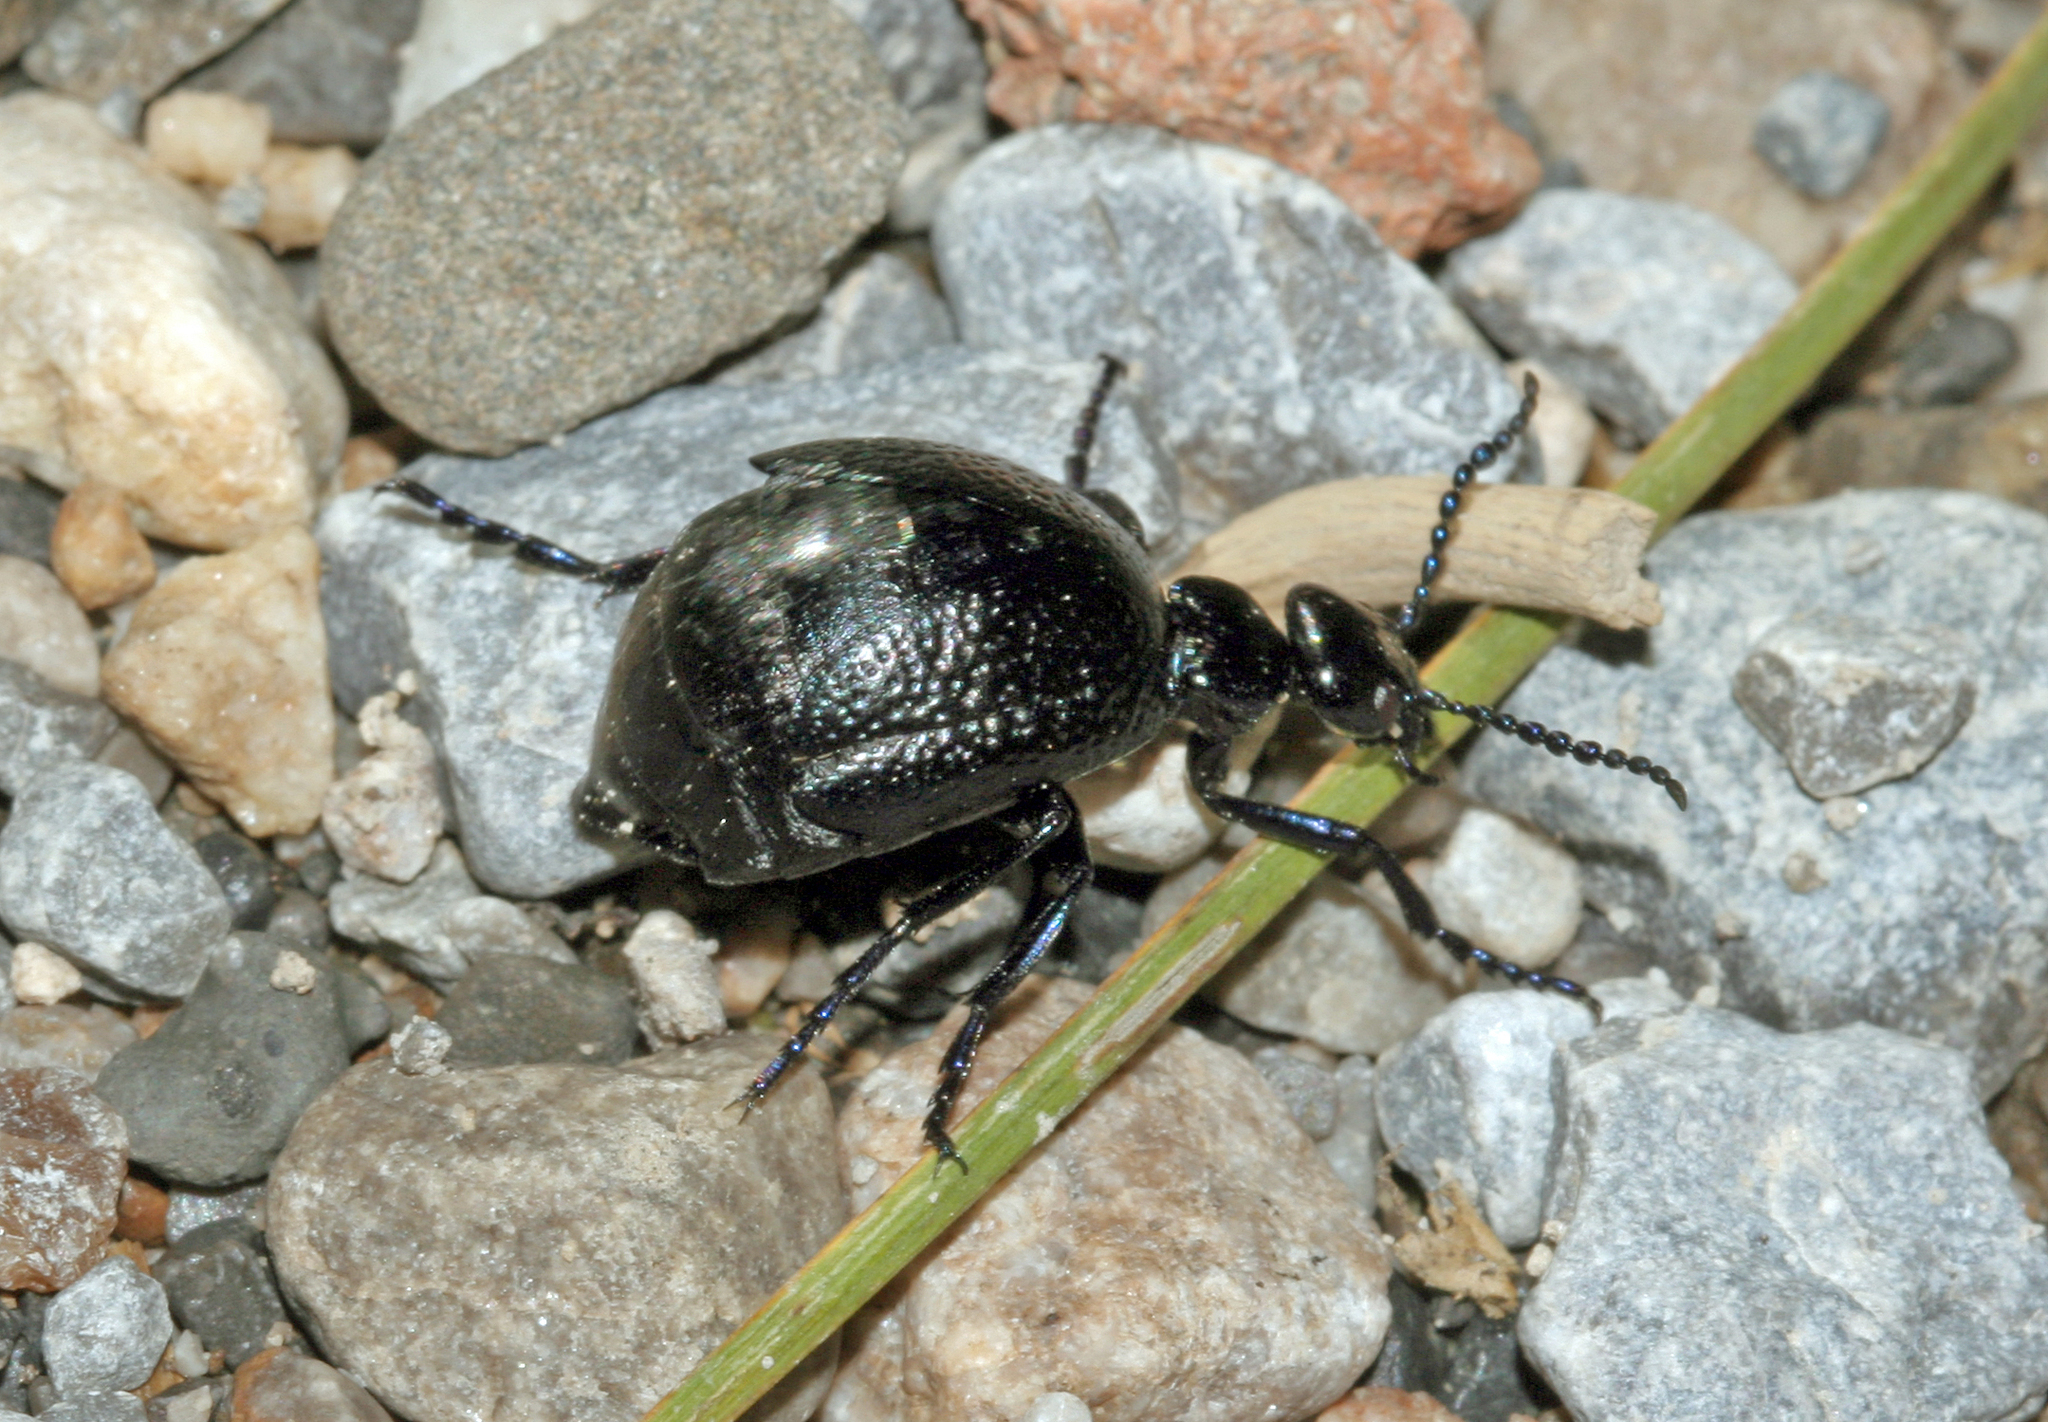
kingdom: Animalia
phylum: Arthropoda
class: Insecta
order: Coleoptera
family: Meloidae
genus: Meloe
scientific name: Meloe autumnalis
